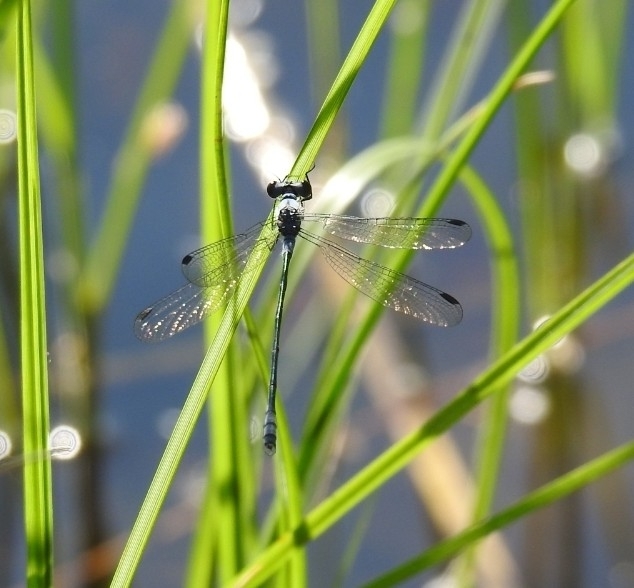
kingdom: Animalia
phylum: Arthropoda
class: Insecta
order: Odonata
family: Lestidae
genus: Lestes
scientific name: Lestes macrostigma
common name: Dark spreadwing
